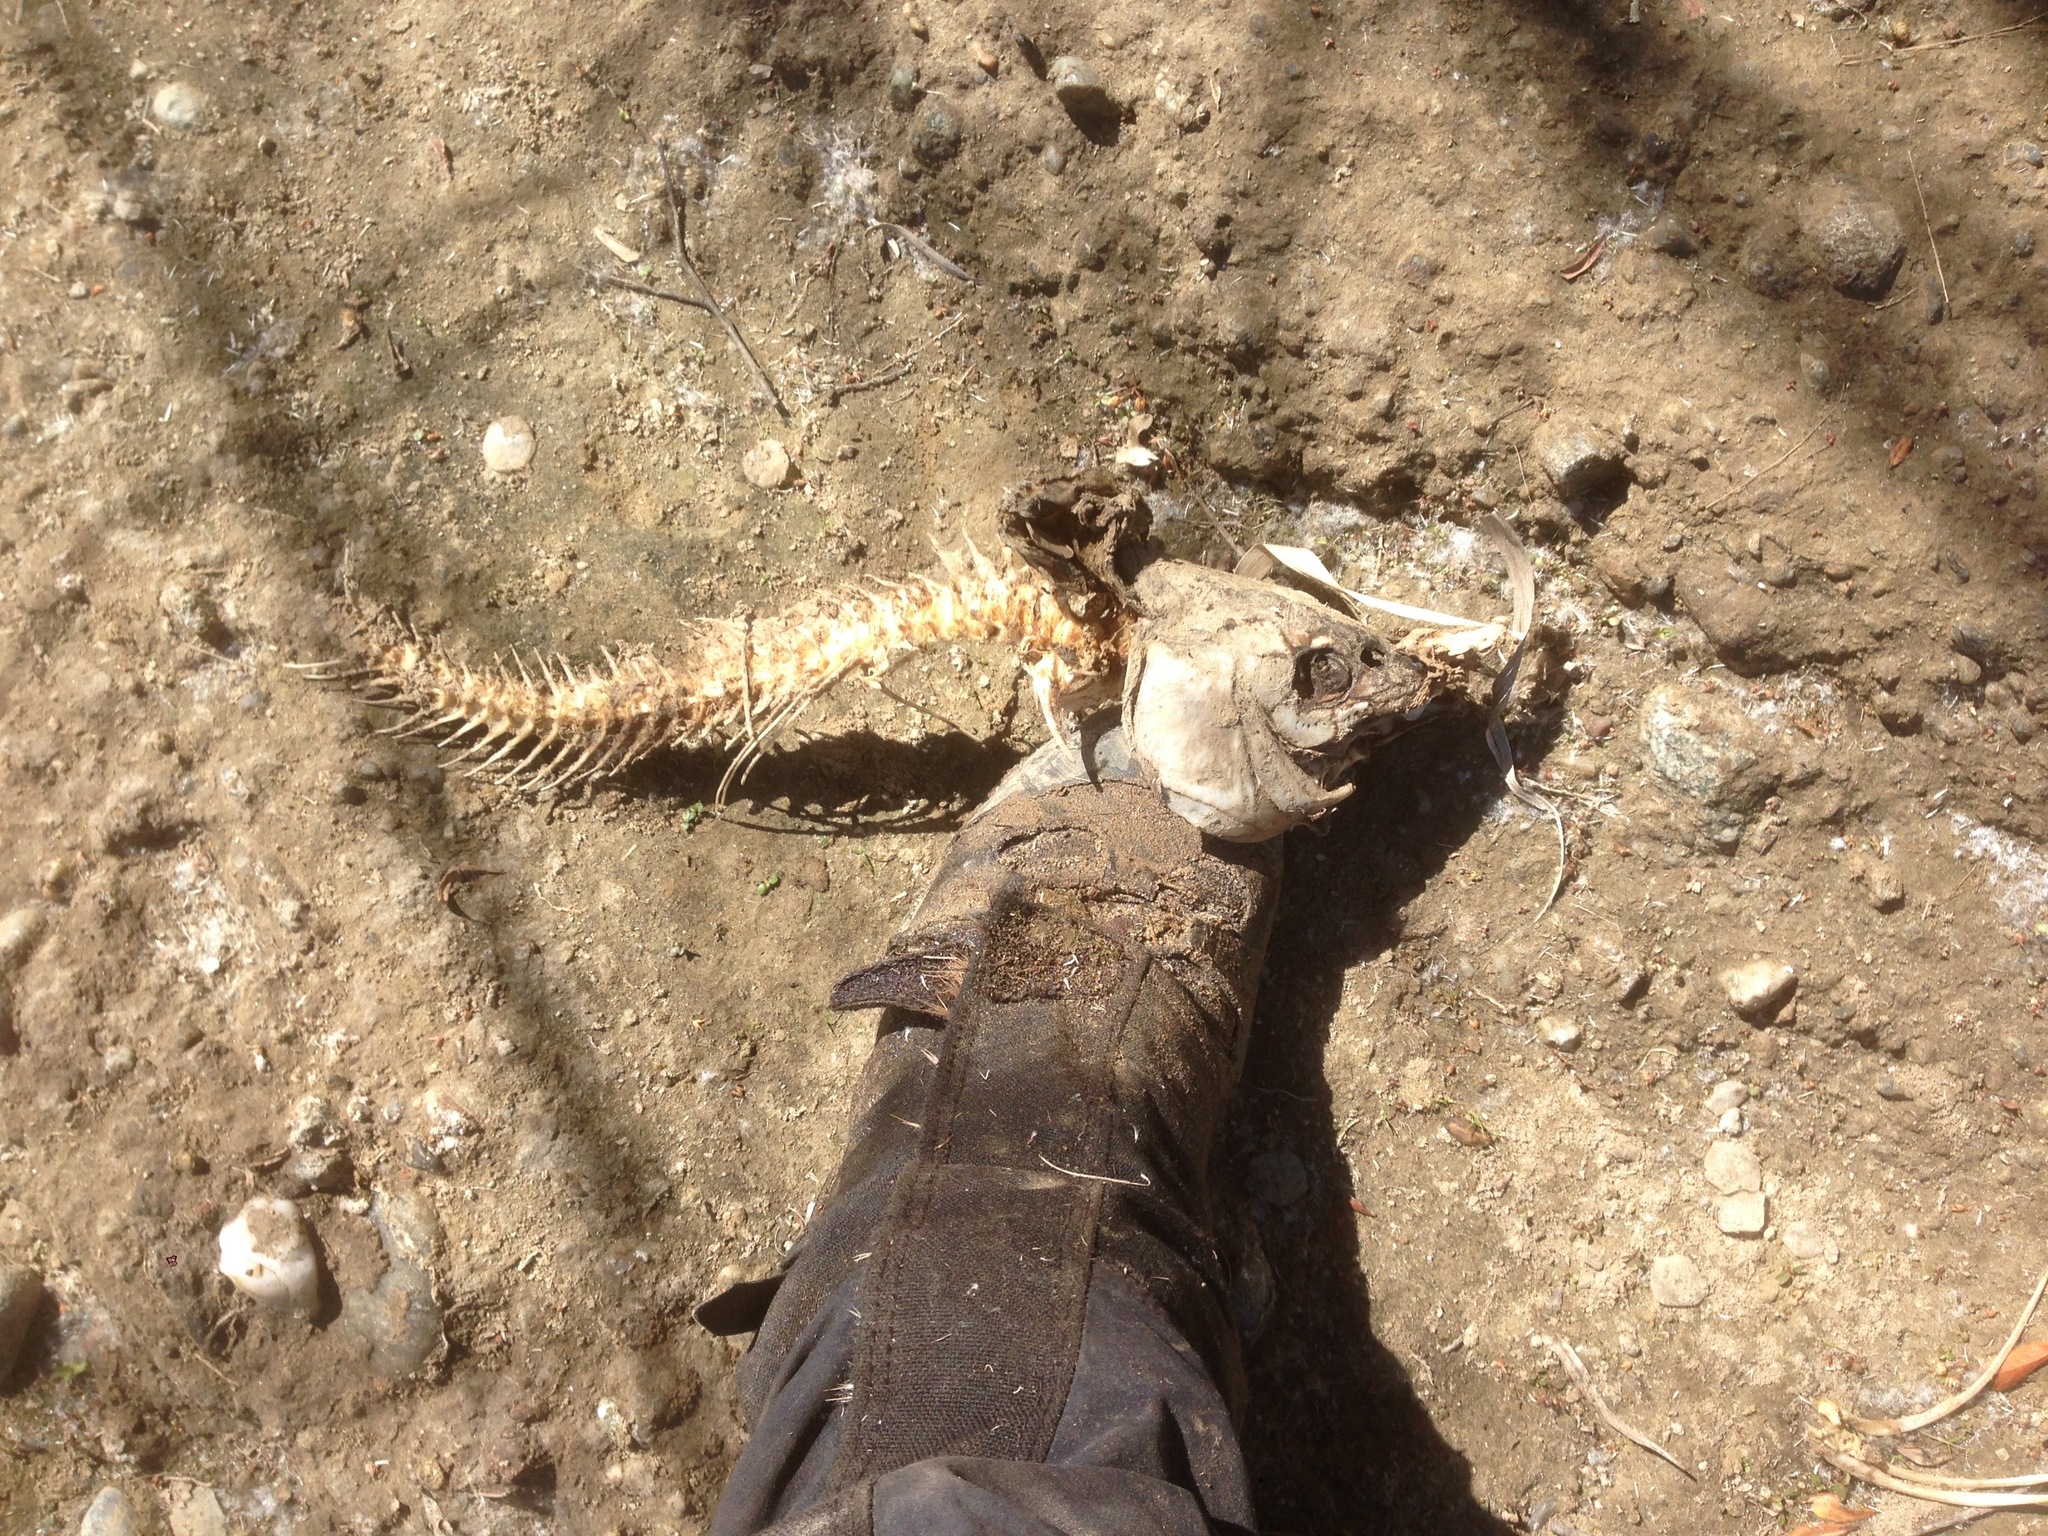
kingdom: Animalia
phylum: Chordata
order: Cypriniformes
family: Cyprinidae
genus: Cyprinus
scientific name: Cyprinus carpio
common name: Common carp
